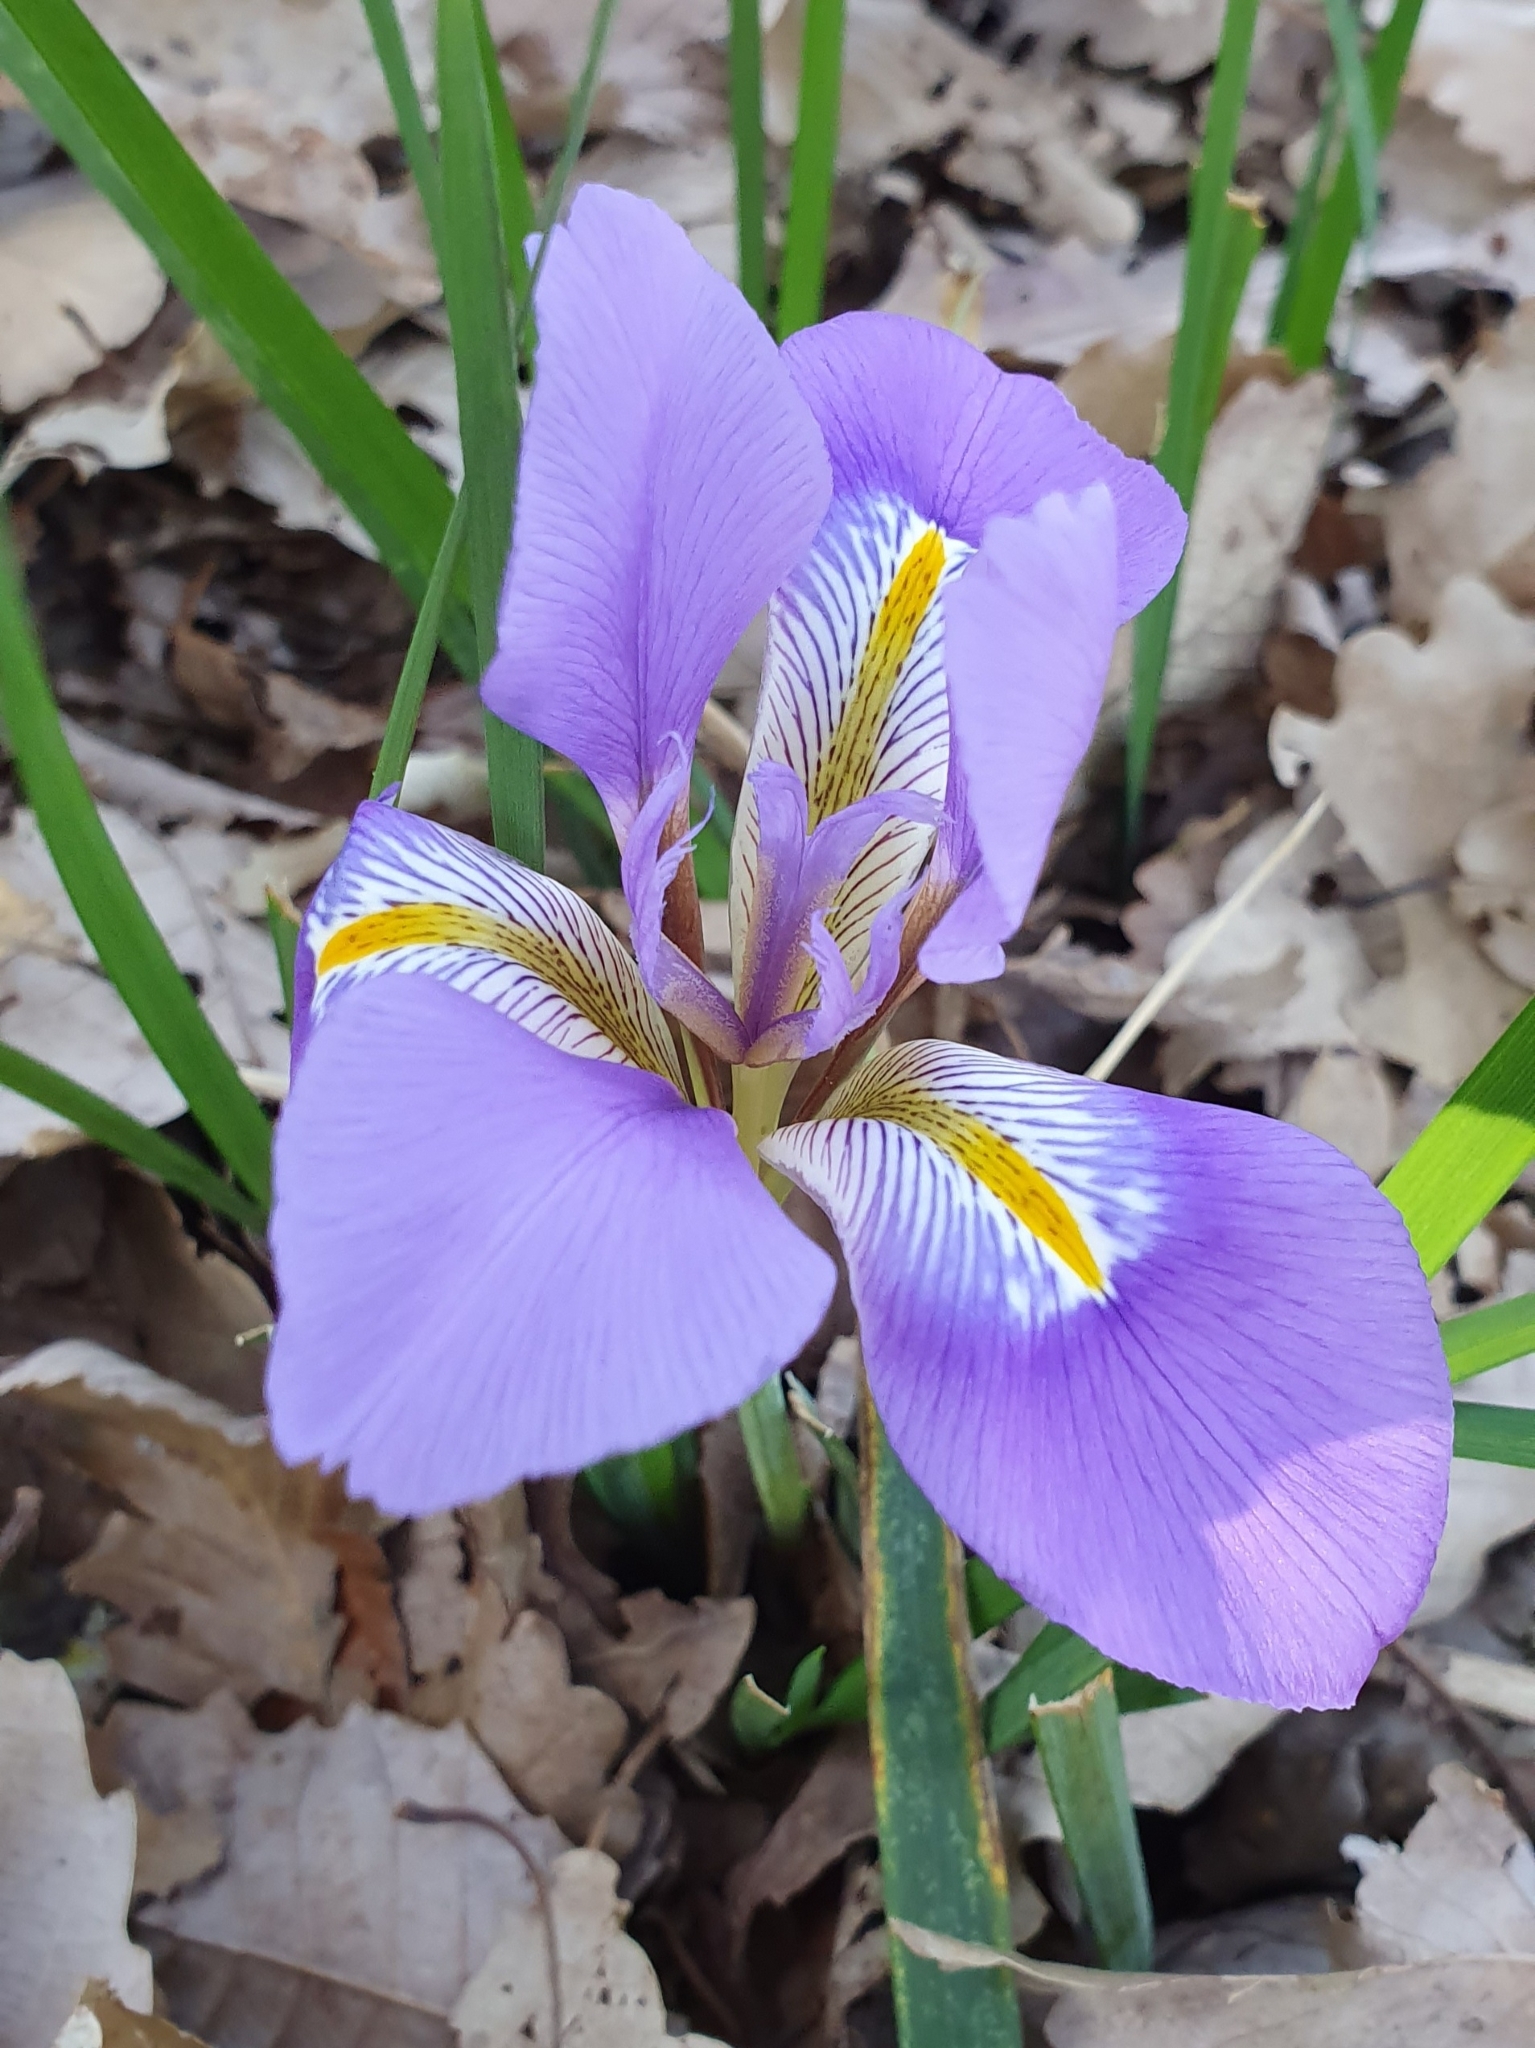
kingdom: Plantae
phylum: Tracheophyta
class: Liliopsida
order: Asparagales
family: Iridaceae
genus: Iris
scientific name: Iris unguicularis
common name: Algerian iris
